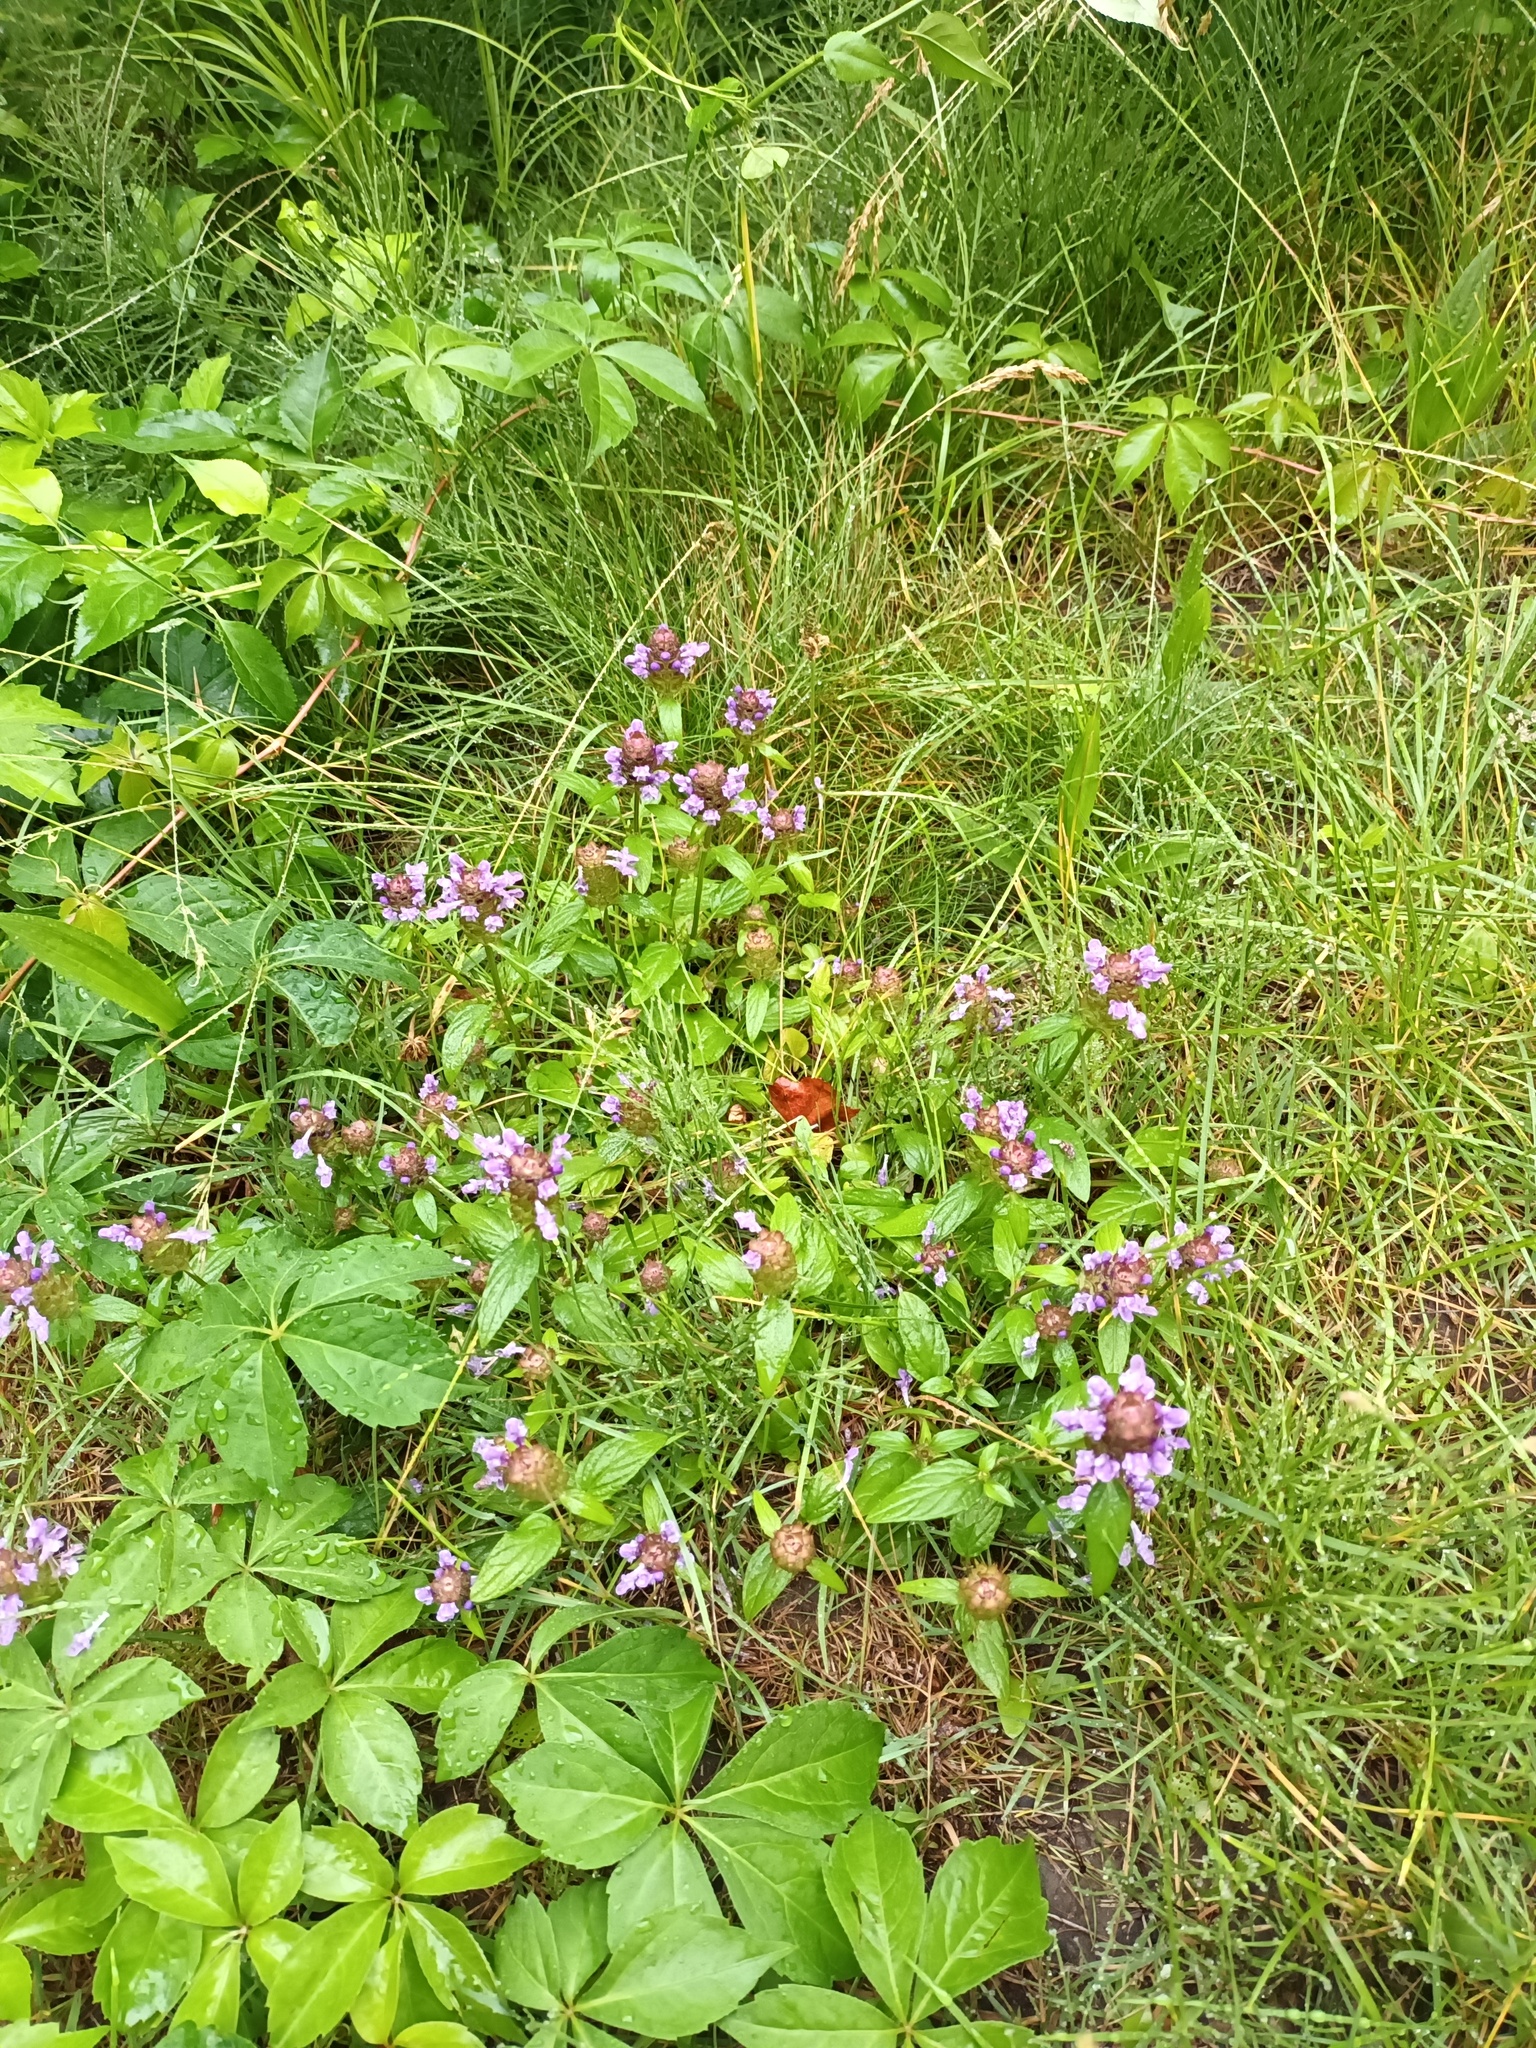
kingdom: Plantae
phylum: Tracheophyta
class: Magnoliopsida
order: Lamiales
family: Lamiaceae
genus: Prunella
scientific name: Prunella vulgaris
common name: Heal-all
